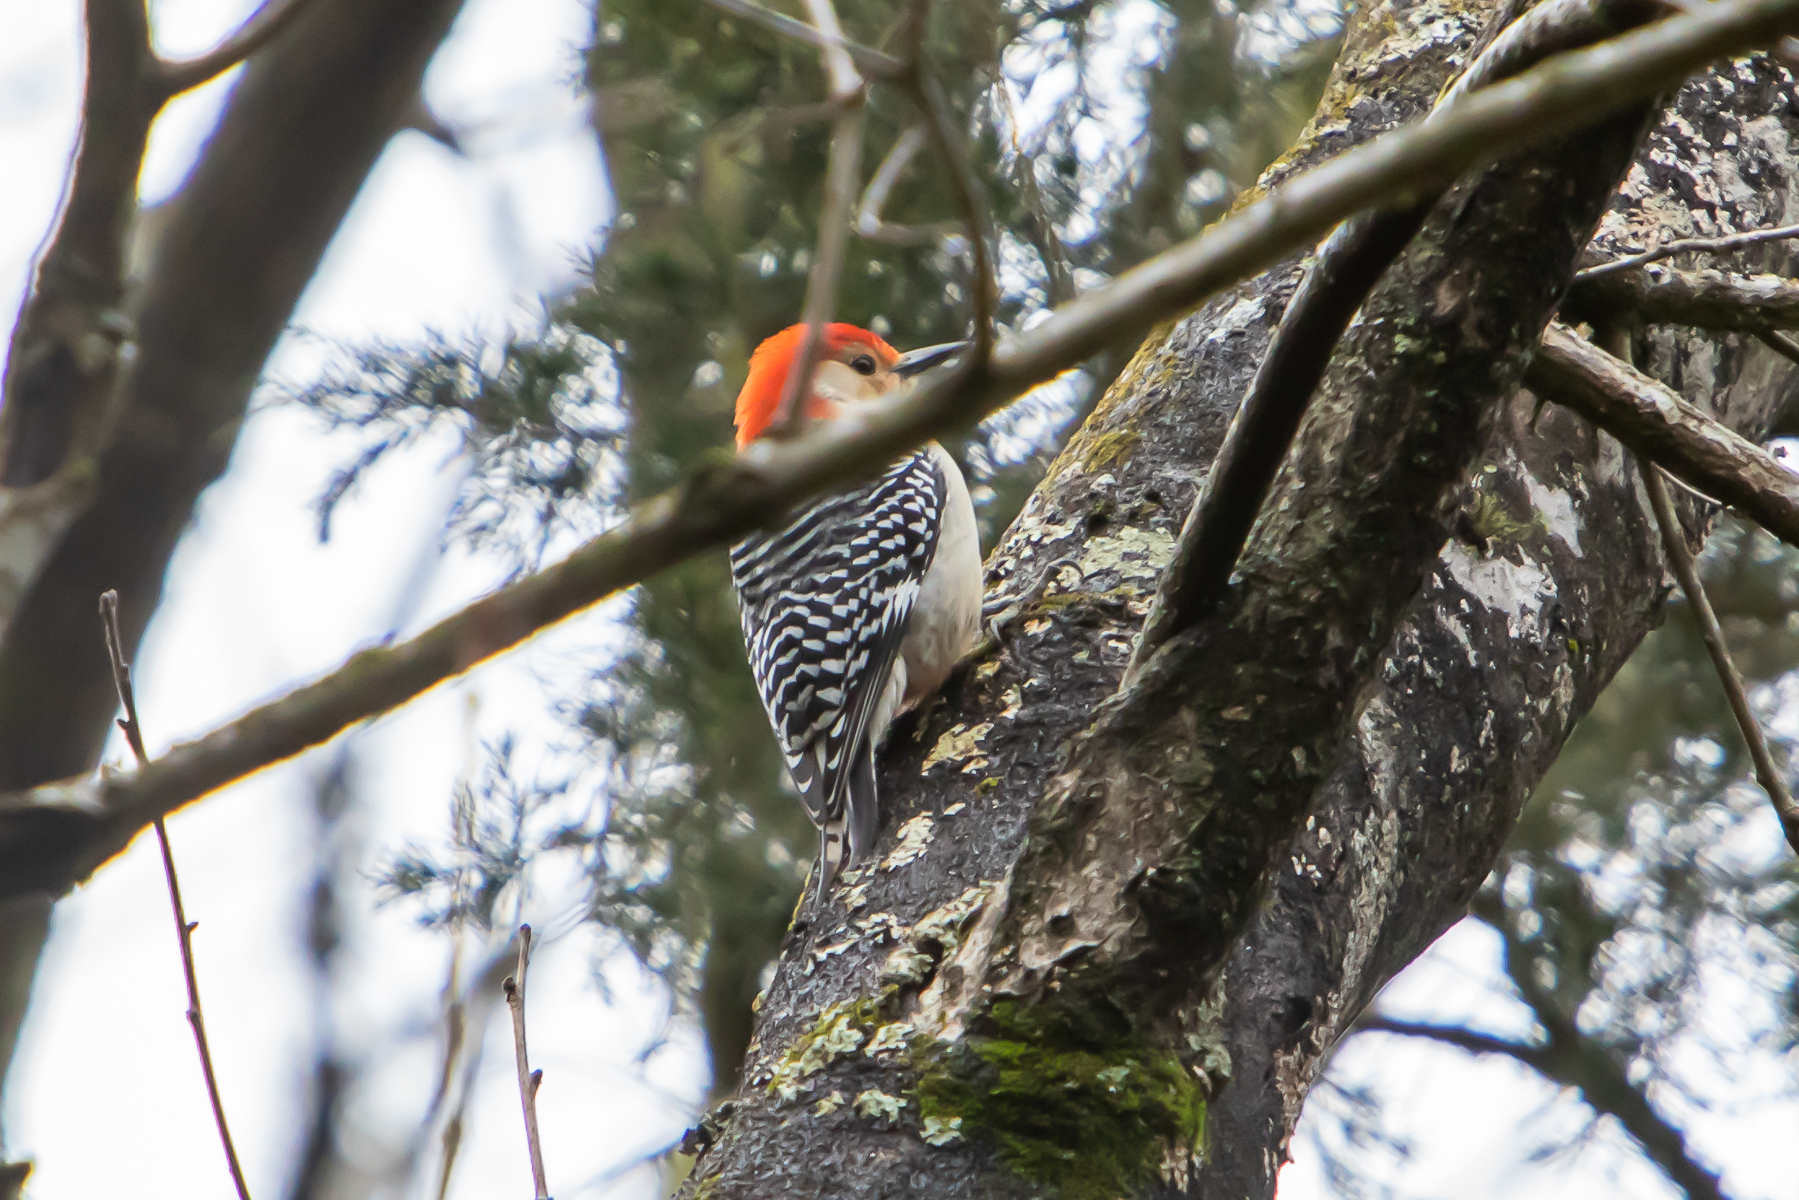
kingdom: Animalia
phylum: Chordata
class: Aves
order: Piciformes
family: Picidae
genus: Melanerpes
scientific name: Melanerpes carolinus
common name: Red-bellied woodpecker
